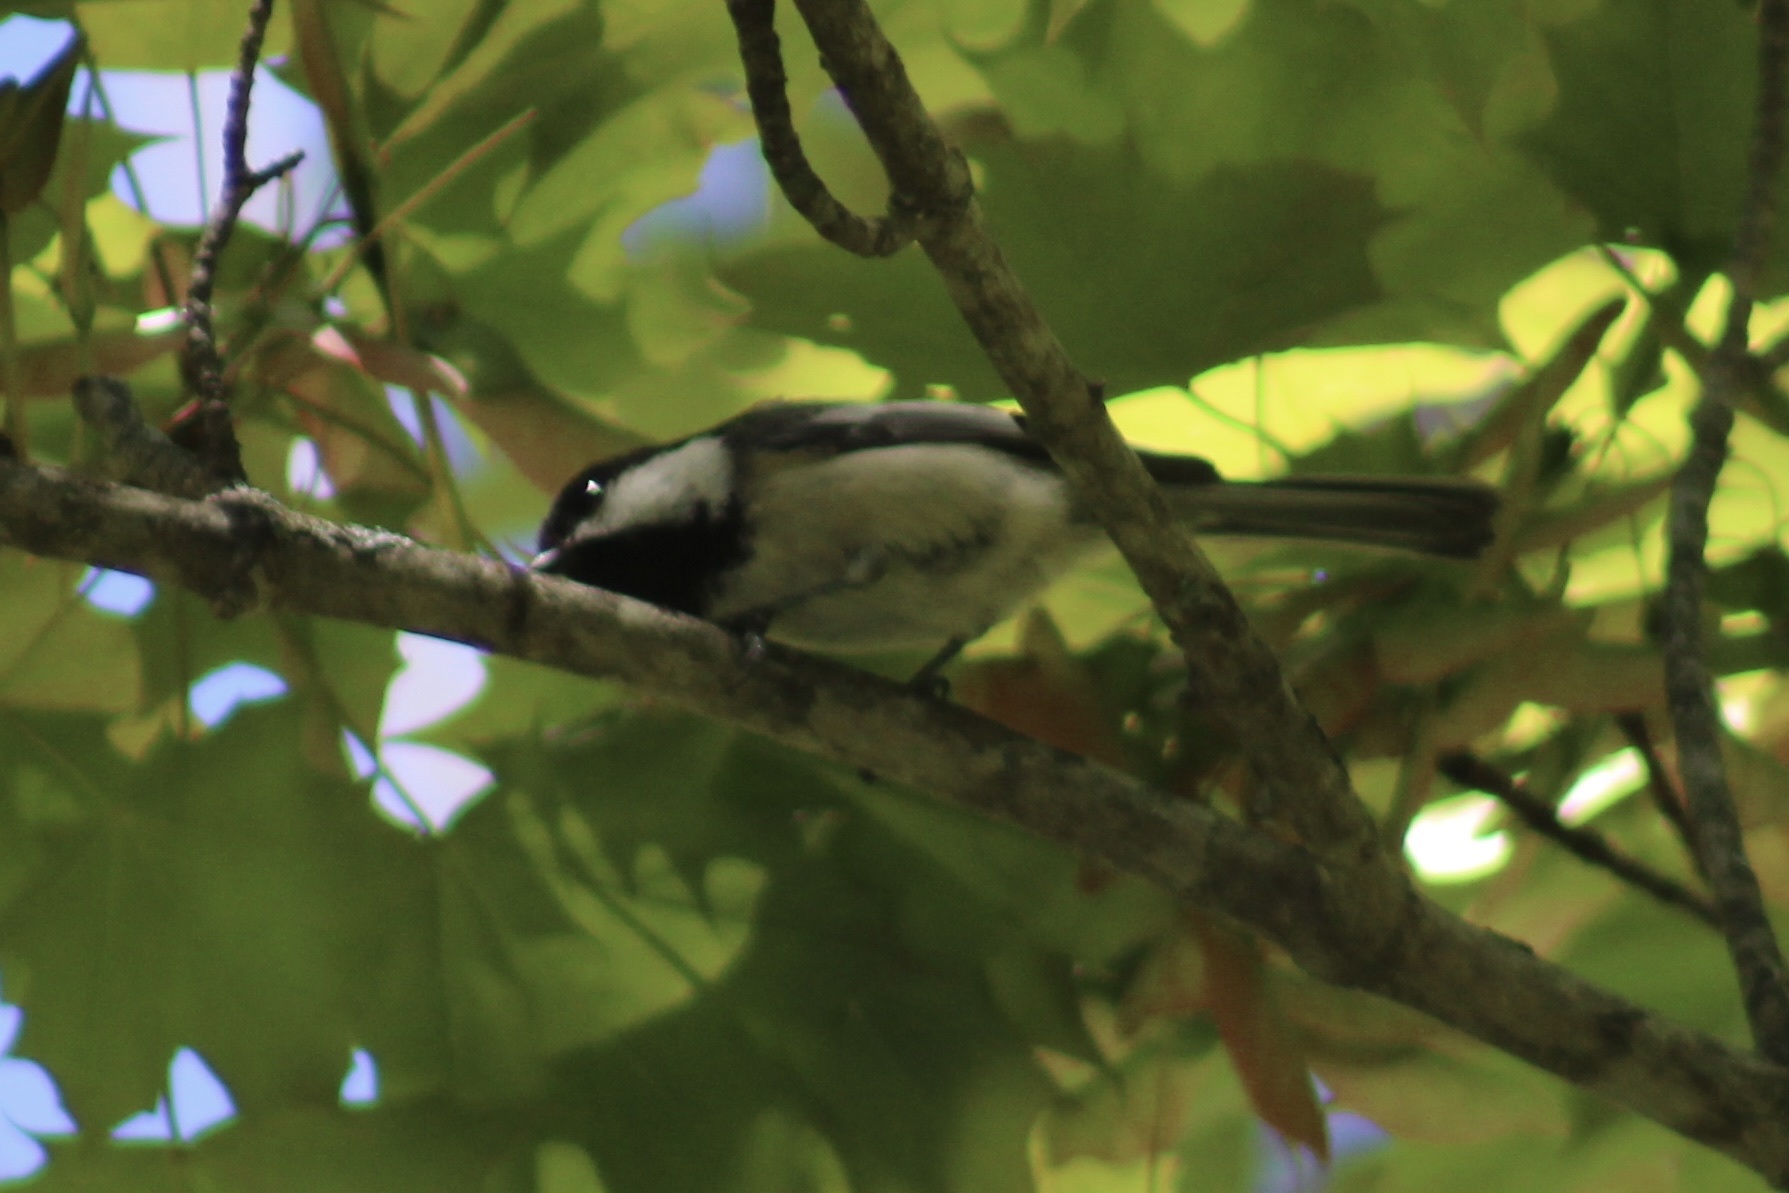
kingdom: Animalia
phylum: Chordata
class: Aves
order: Passeriformes
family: Paridae
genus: Poecile
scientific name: Poecile atricapillus
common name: Black-capped chickadee
